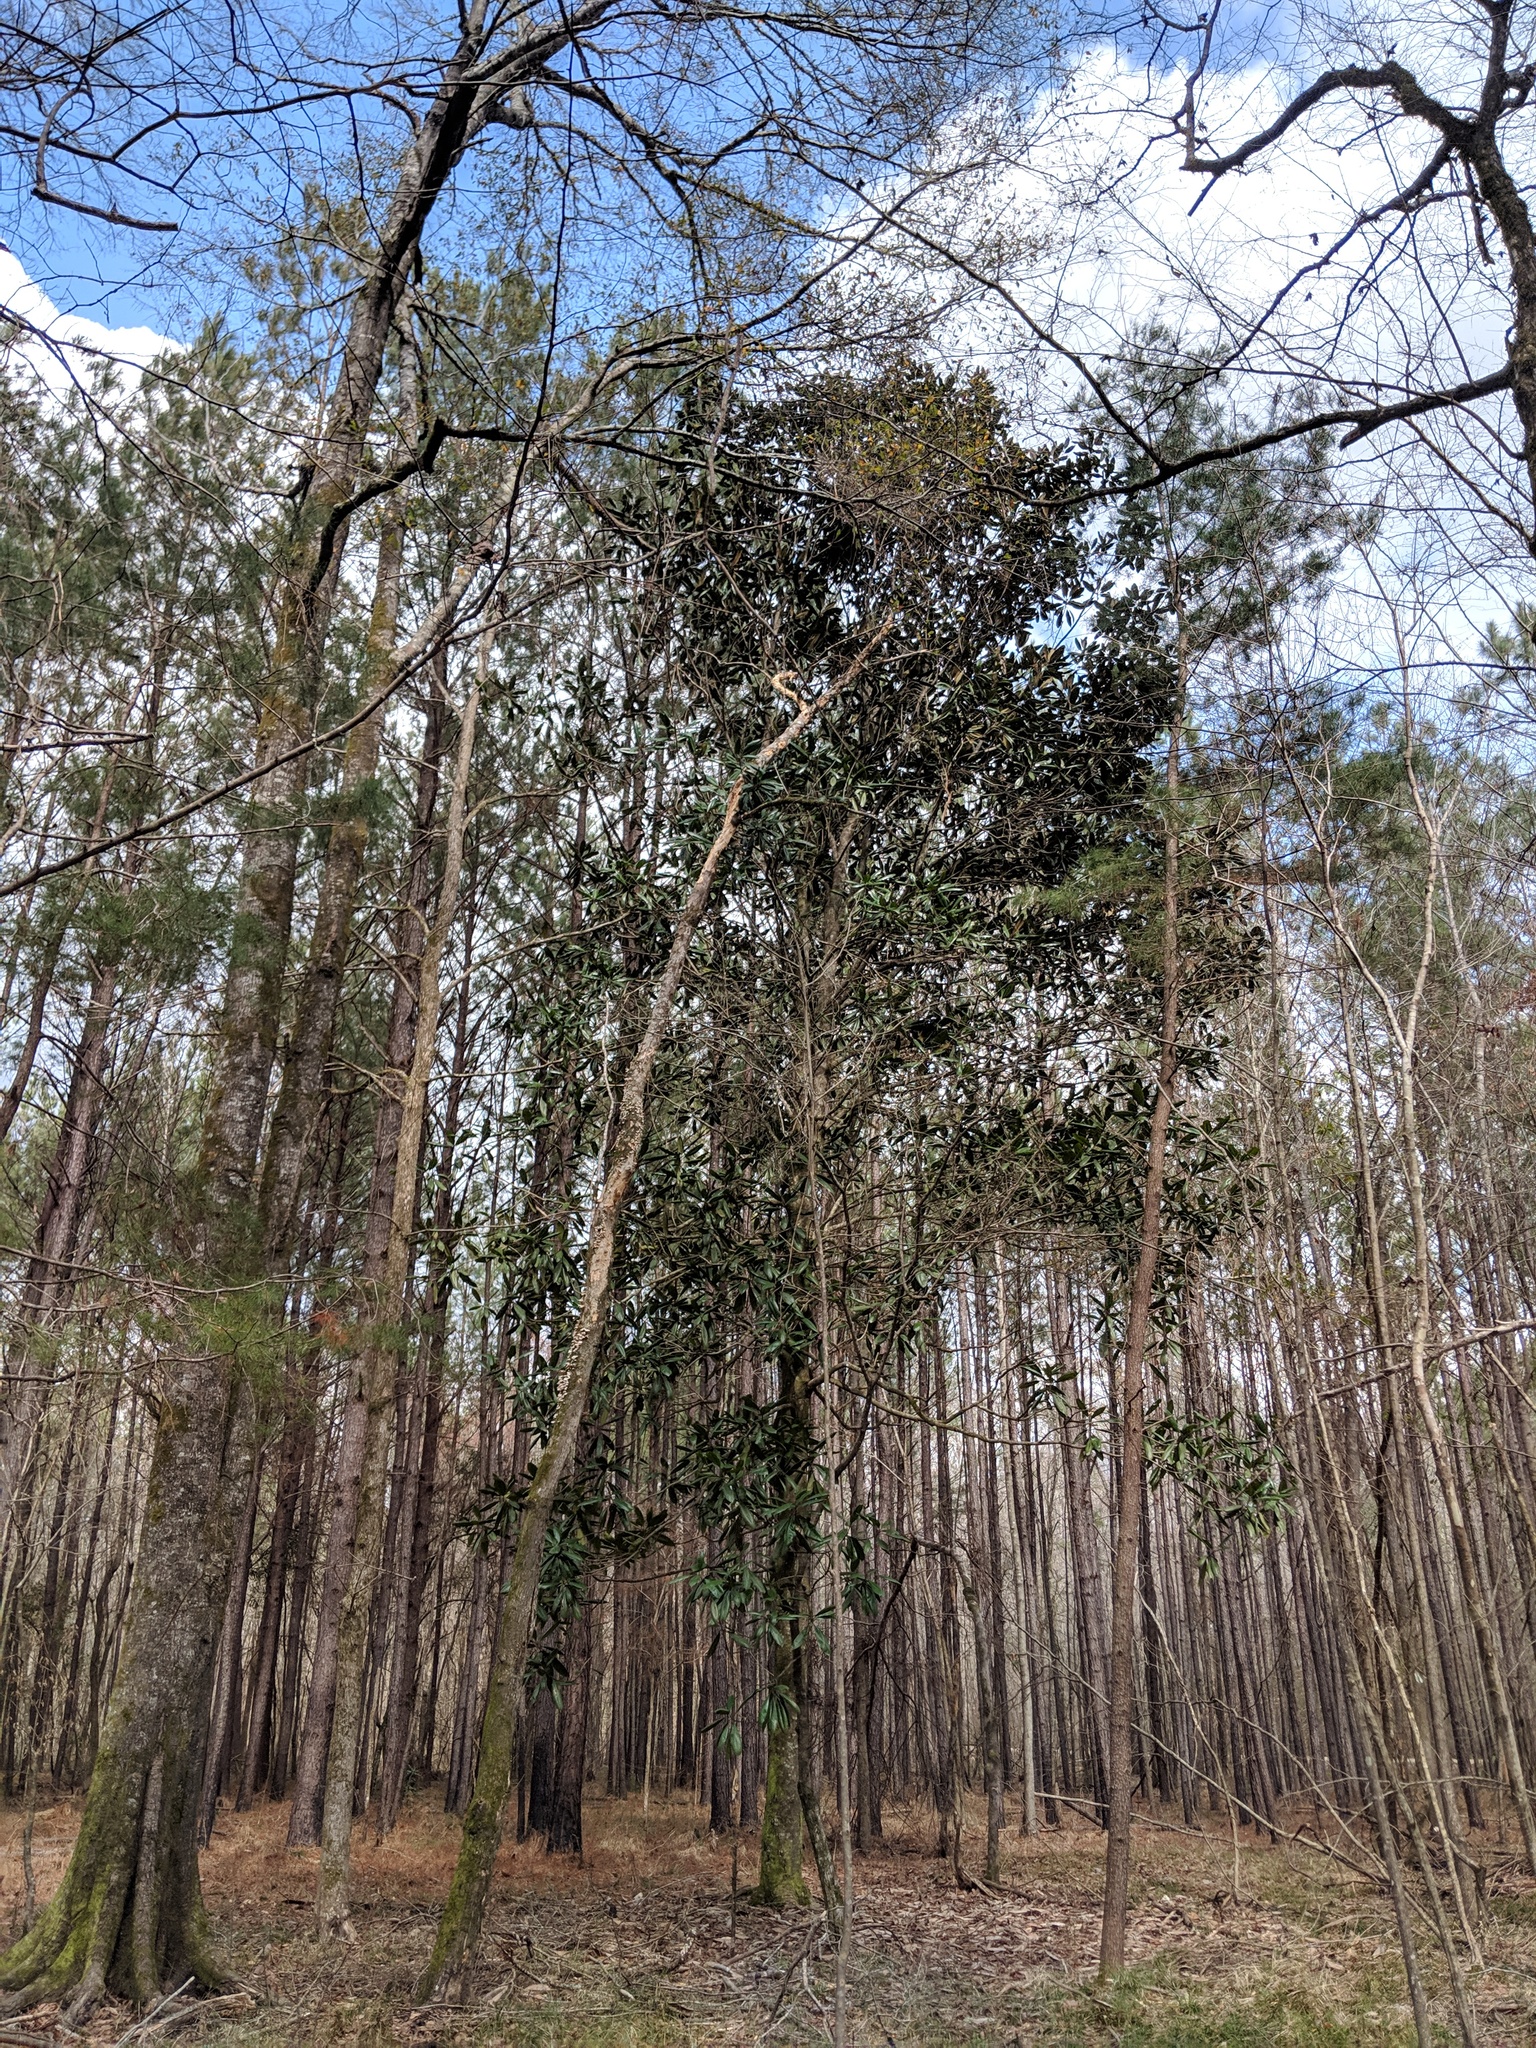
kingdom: Plantae
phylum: Tracheophyta
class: Magnoliopsida
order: Magnoliales
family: Magnoliaceae
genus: Magnolia
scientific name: Magnolia grandiflora
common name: Southern magnolia
